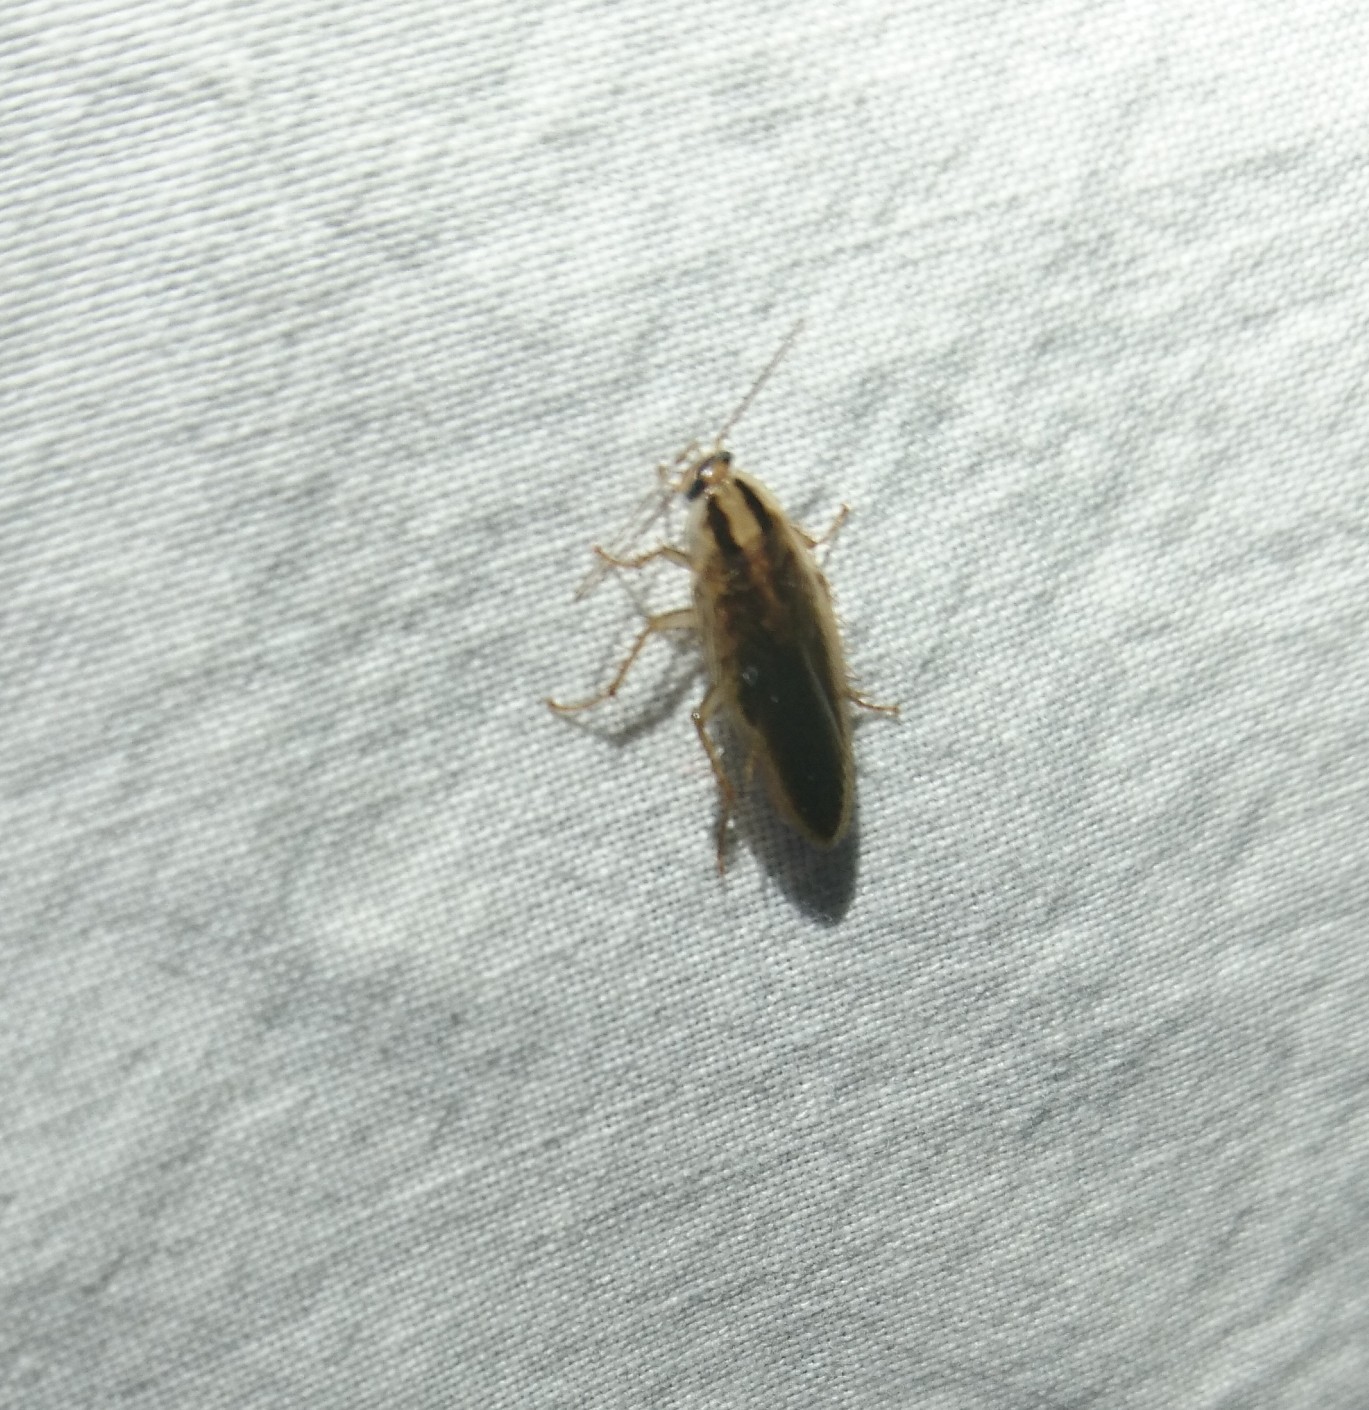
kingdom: Animalia
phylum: Arthropoda
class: Insecta
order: Blattodea
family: Ectobiidae
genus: Blattella
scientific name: Blattella germanica
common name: German cockroach
